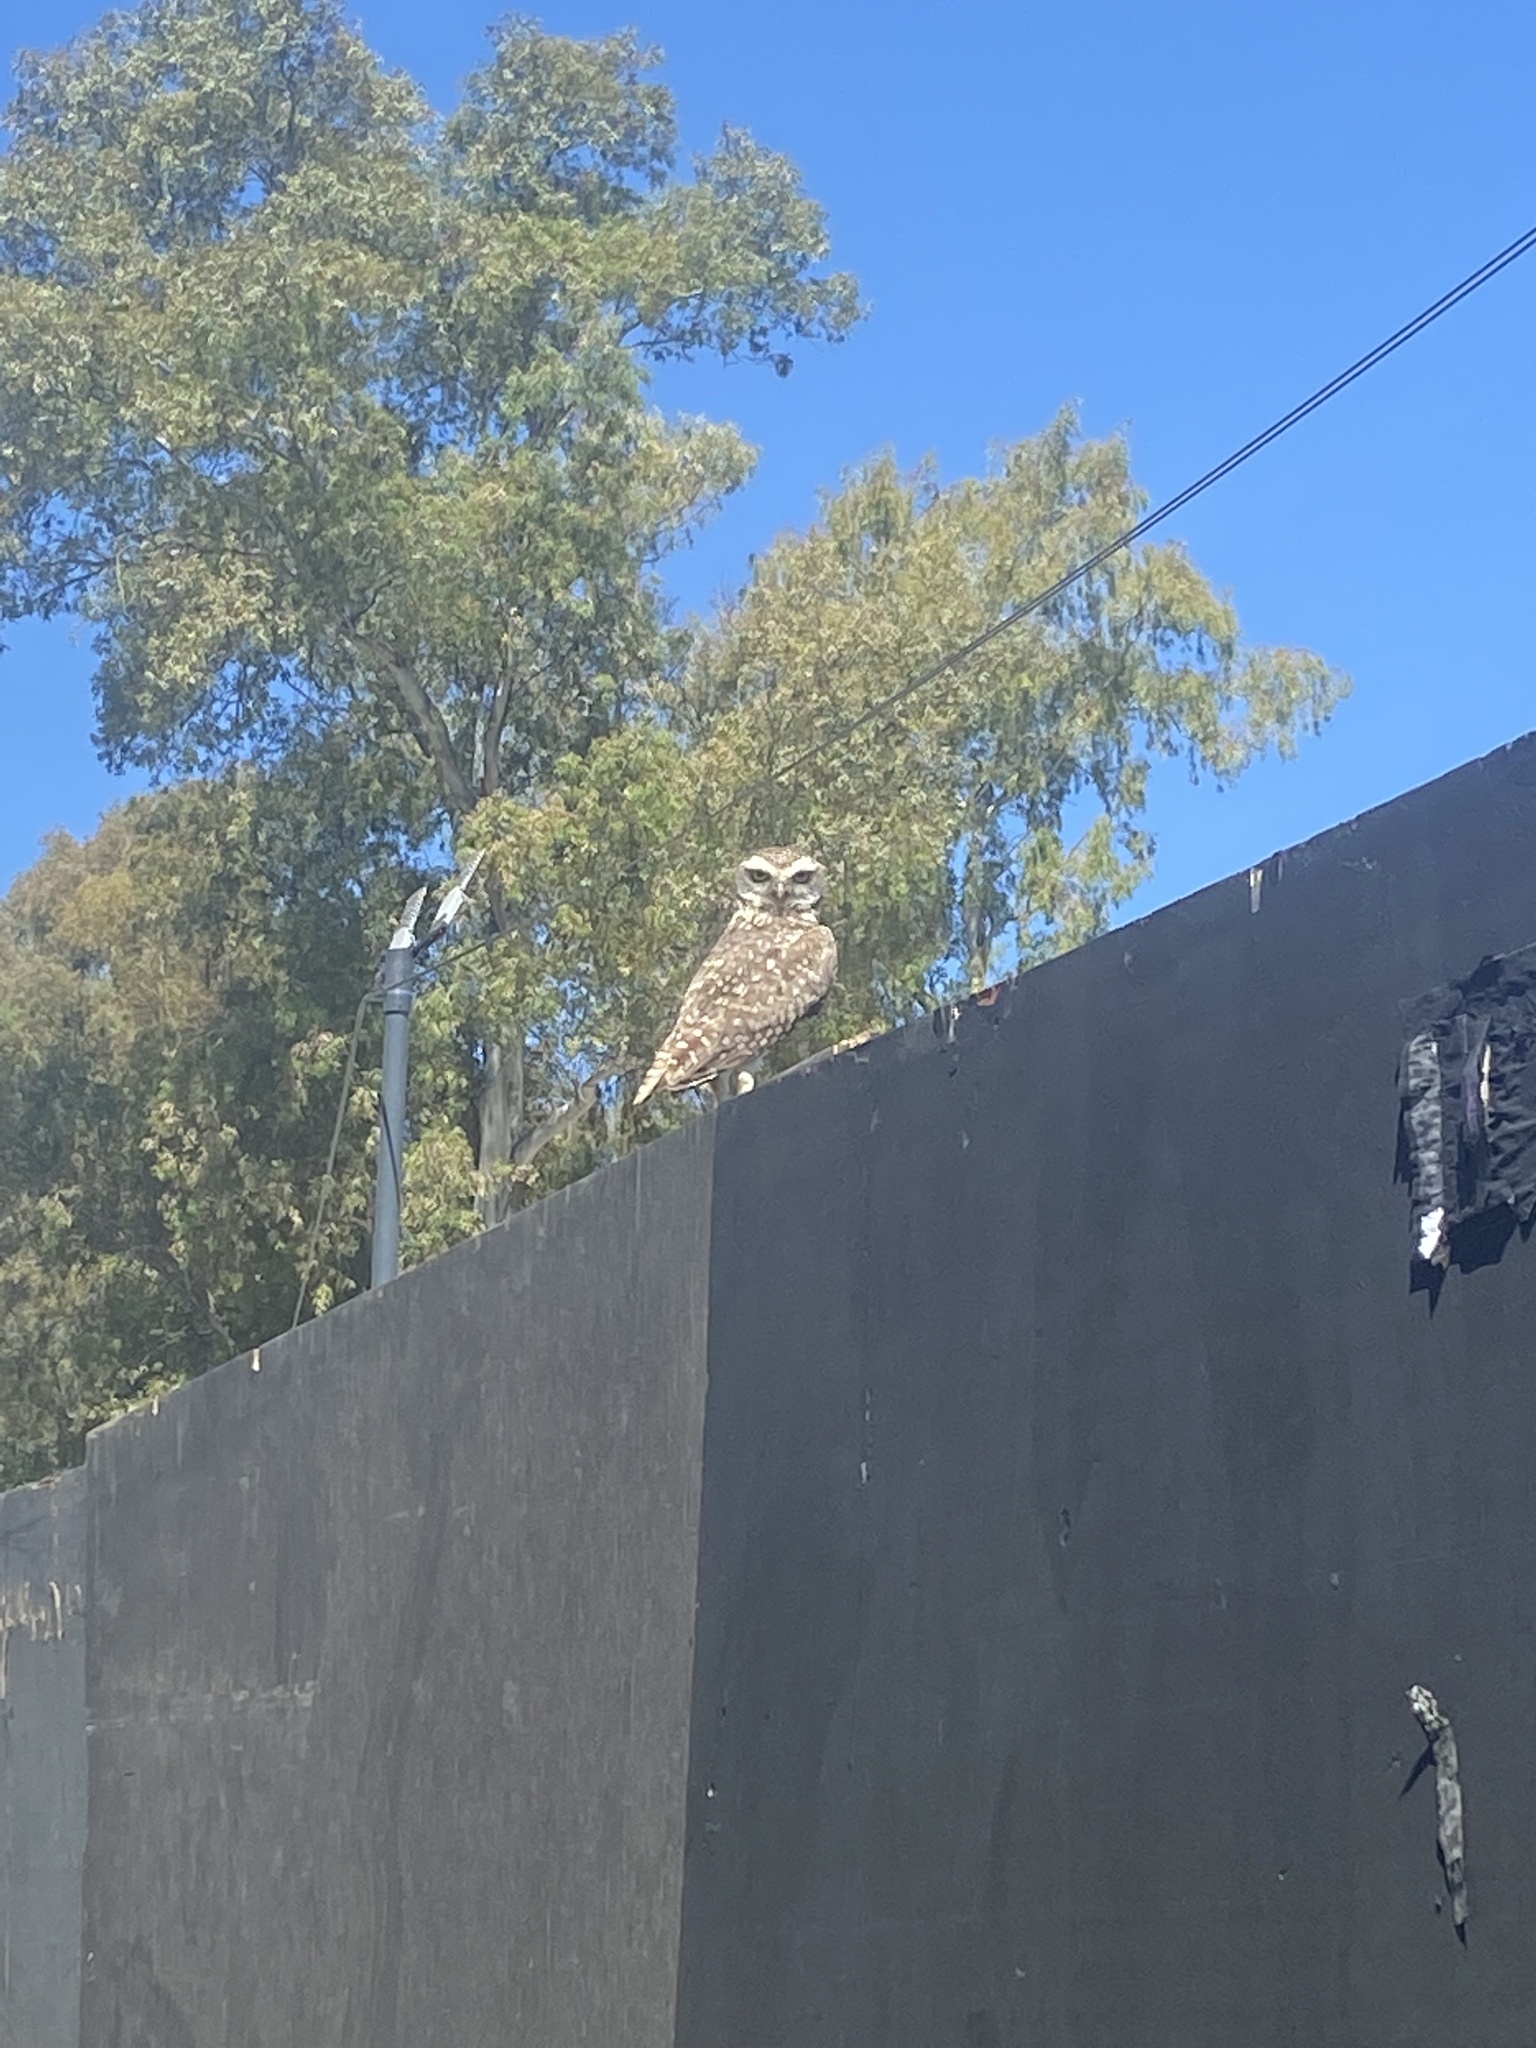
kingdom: Animalia
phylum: Chordata
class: Aves
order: Strigiformes
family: Strigidae
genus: Athene
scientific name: Athene cunicularia
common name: Burrowing owl
